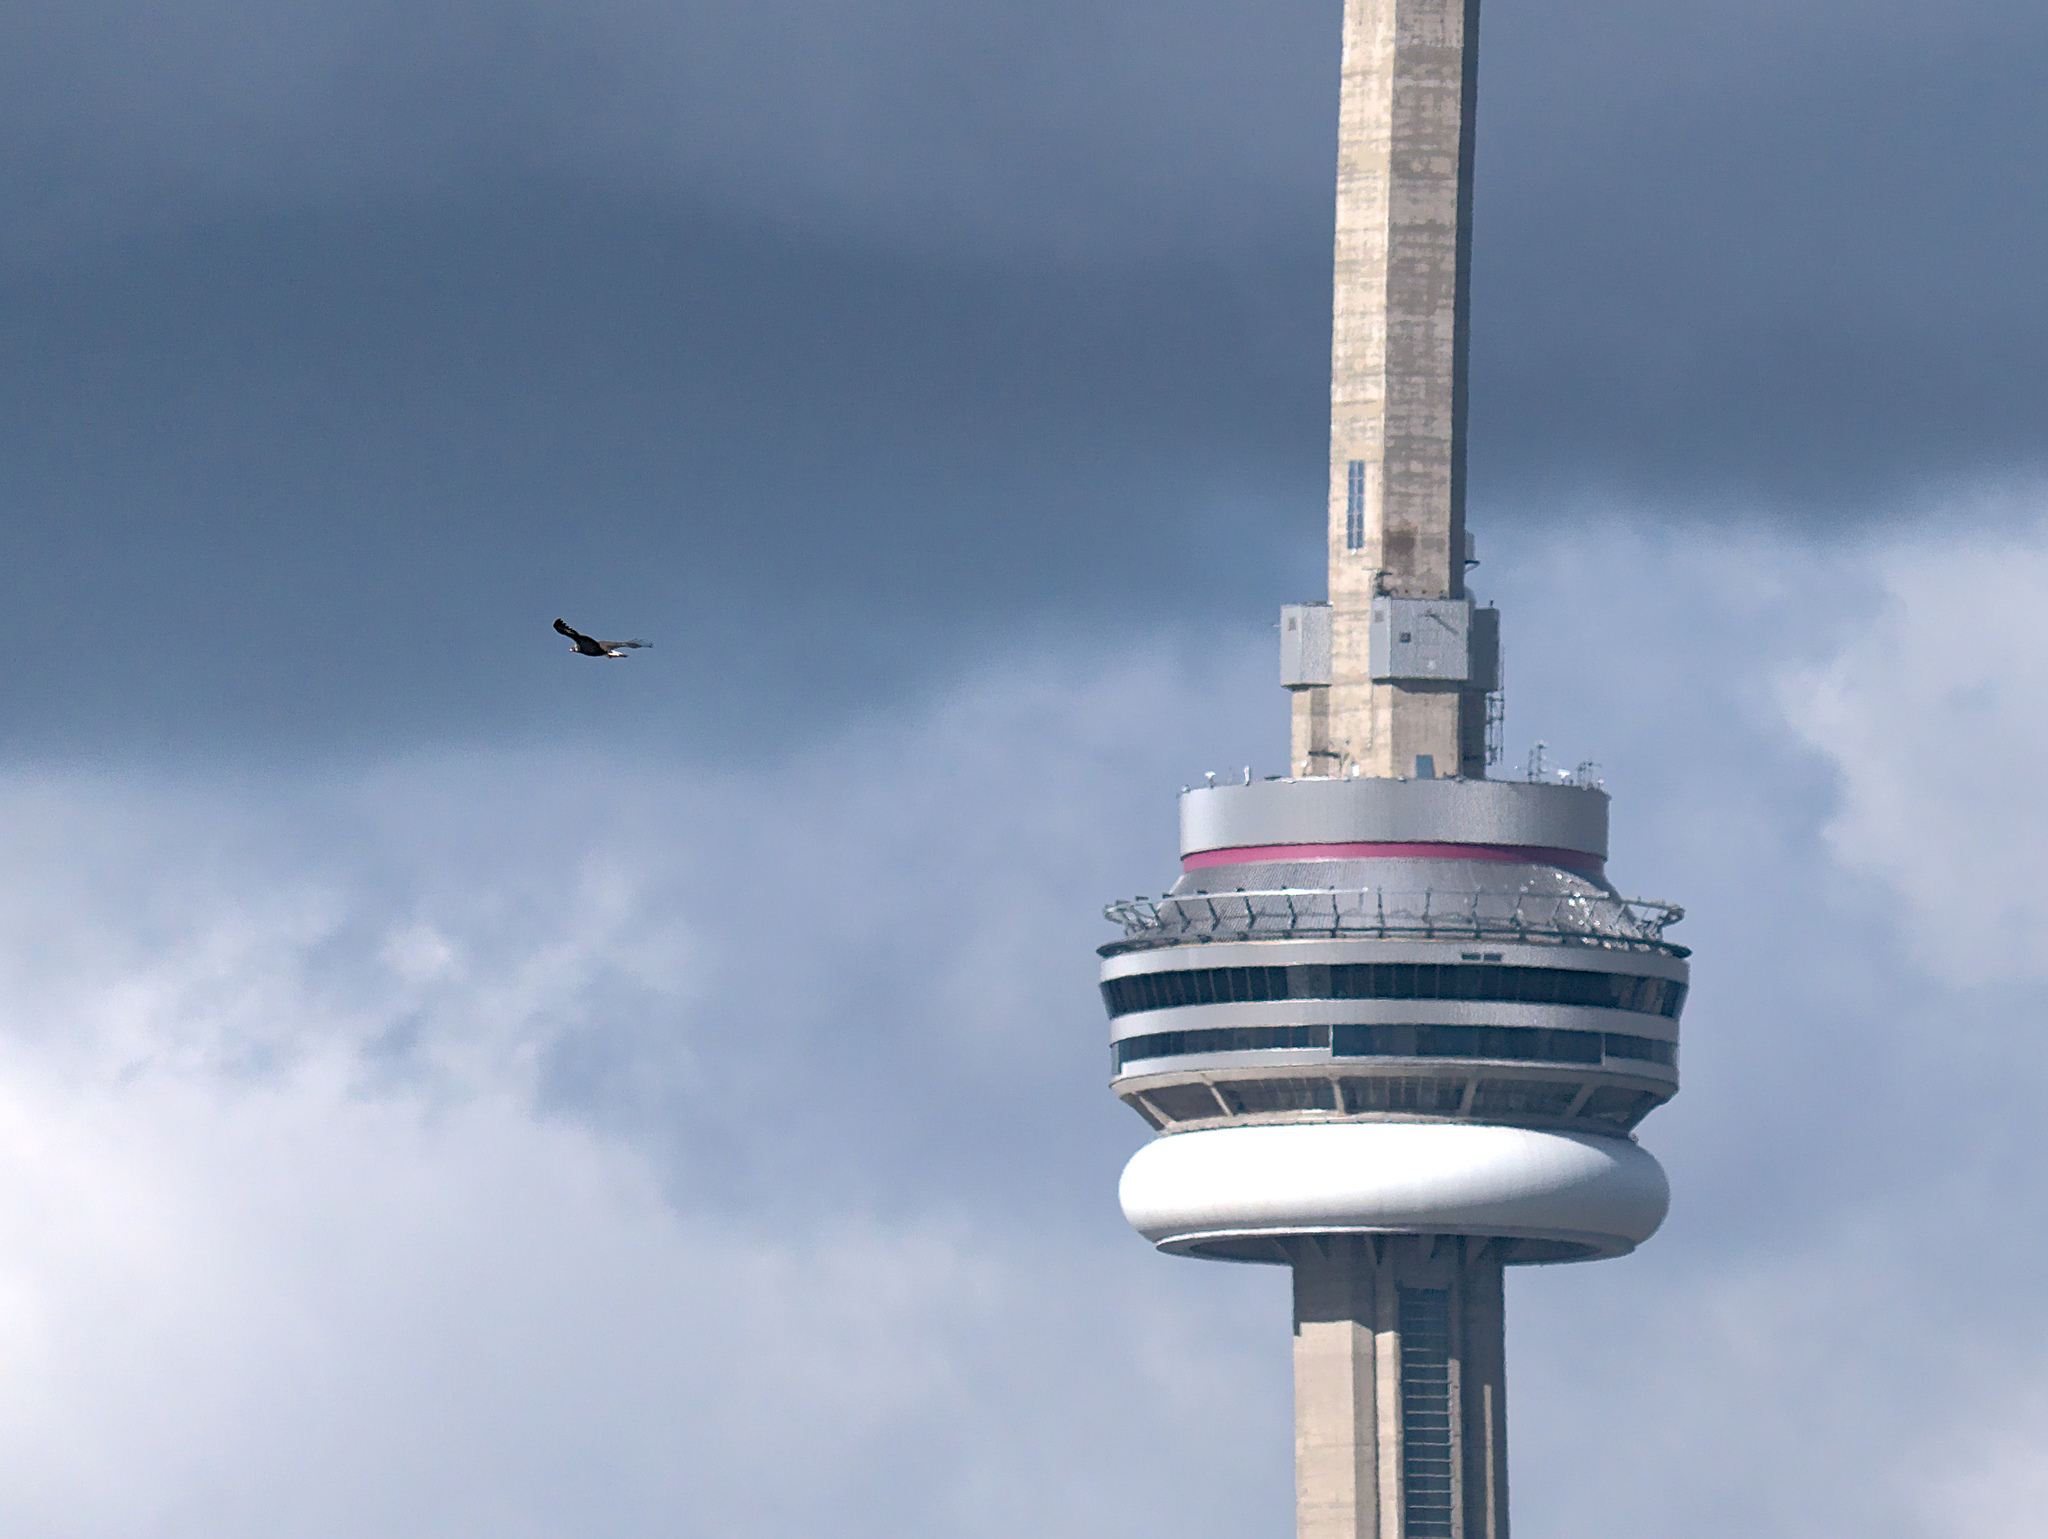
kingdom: Animalia
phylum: Chordata
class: Aves
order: Accipitriformes
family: Accipitridae
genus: Aquila
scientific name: Aquila chrysaetos
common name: Golden eagle
